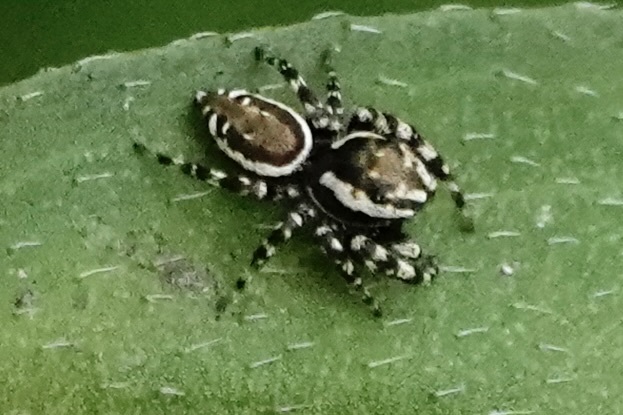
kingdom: Animalia
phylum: Arthropoda
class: Arachnida
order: Araneae
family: Salticidae
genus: Pelegrina
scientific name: Pelegrina galathea
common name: Jumping spiders
